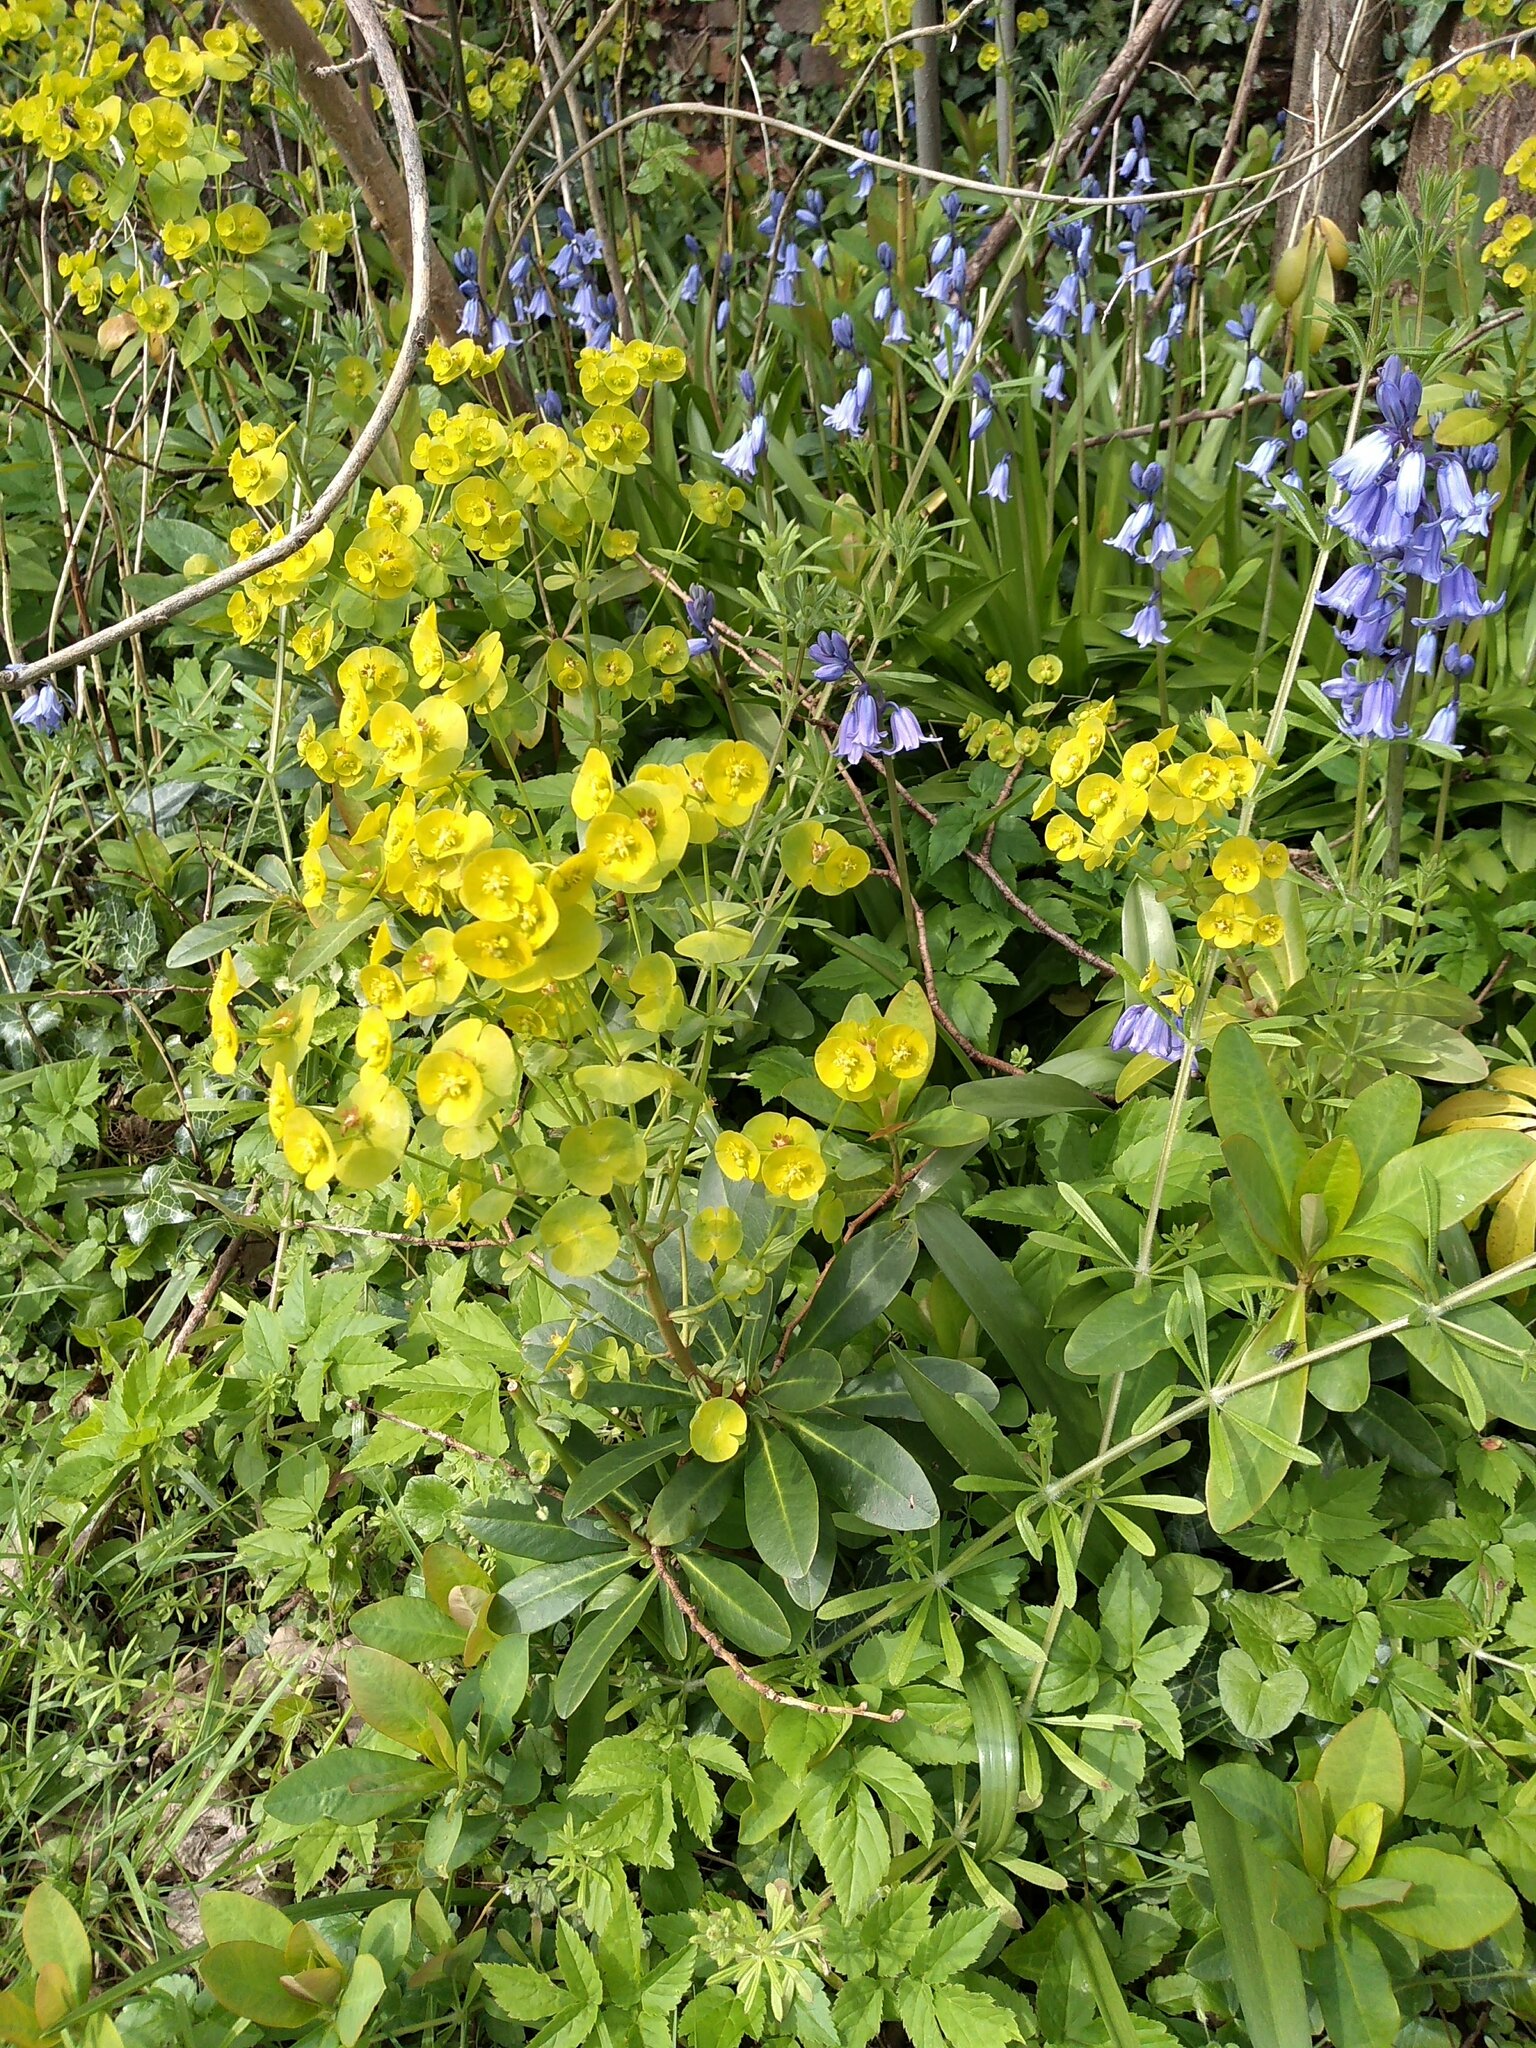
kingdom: Plantae
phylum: Tracheophyta
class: Magnoliopsida
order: Malpighiales
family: Euphorbiaceae
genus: Euphorbia
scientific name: Euphorbia amygdaloides
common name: Wood spurge
